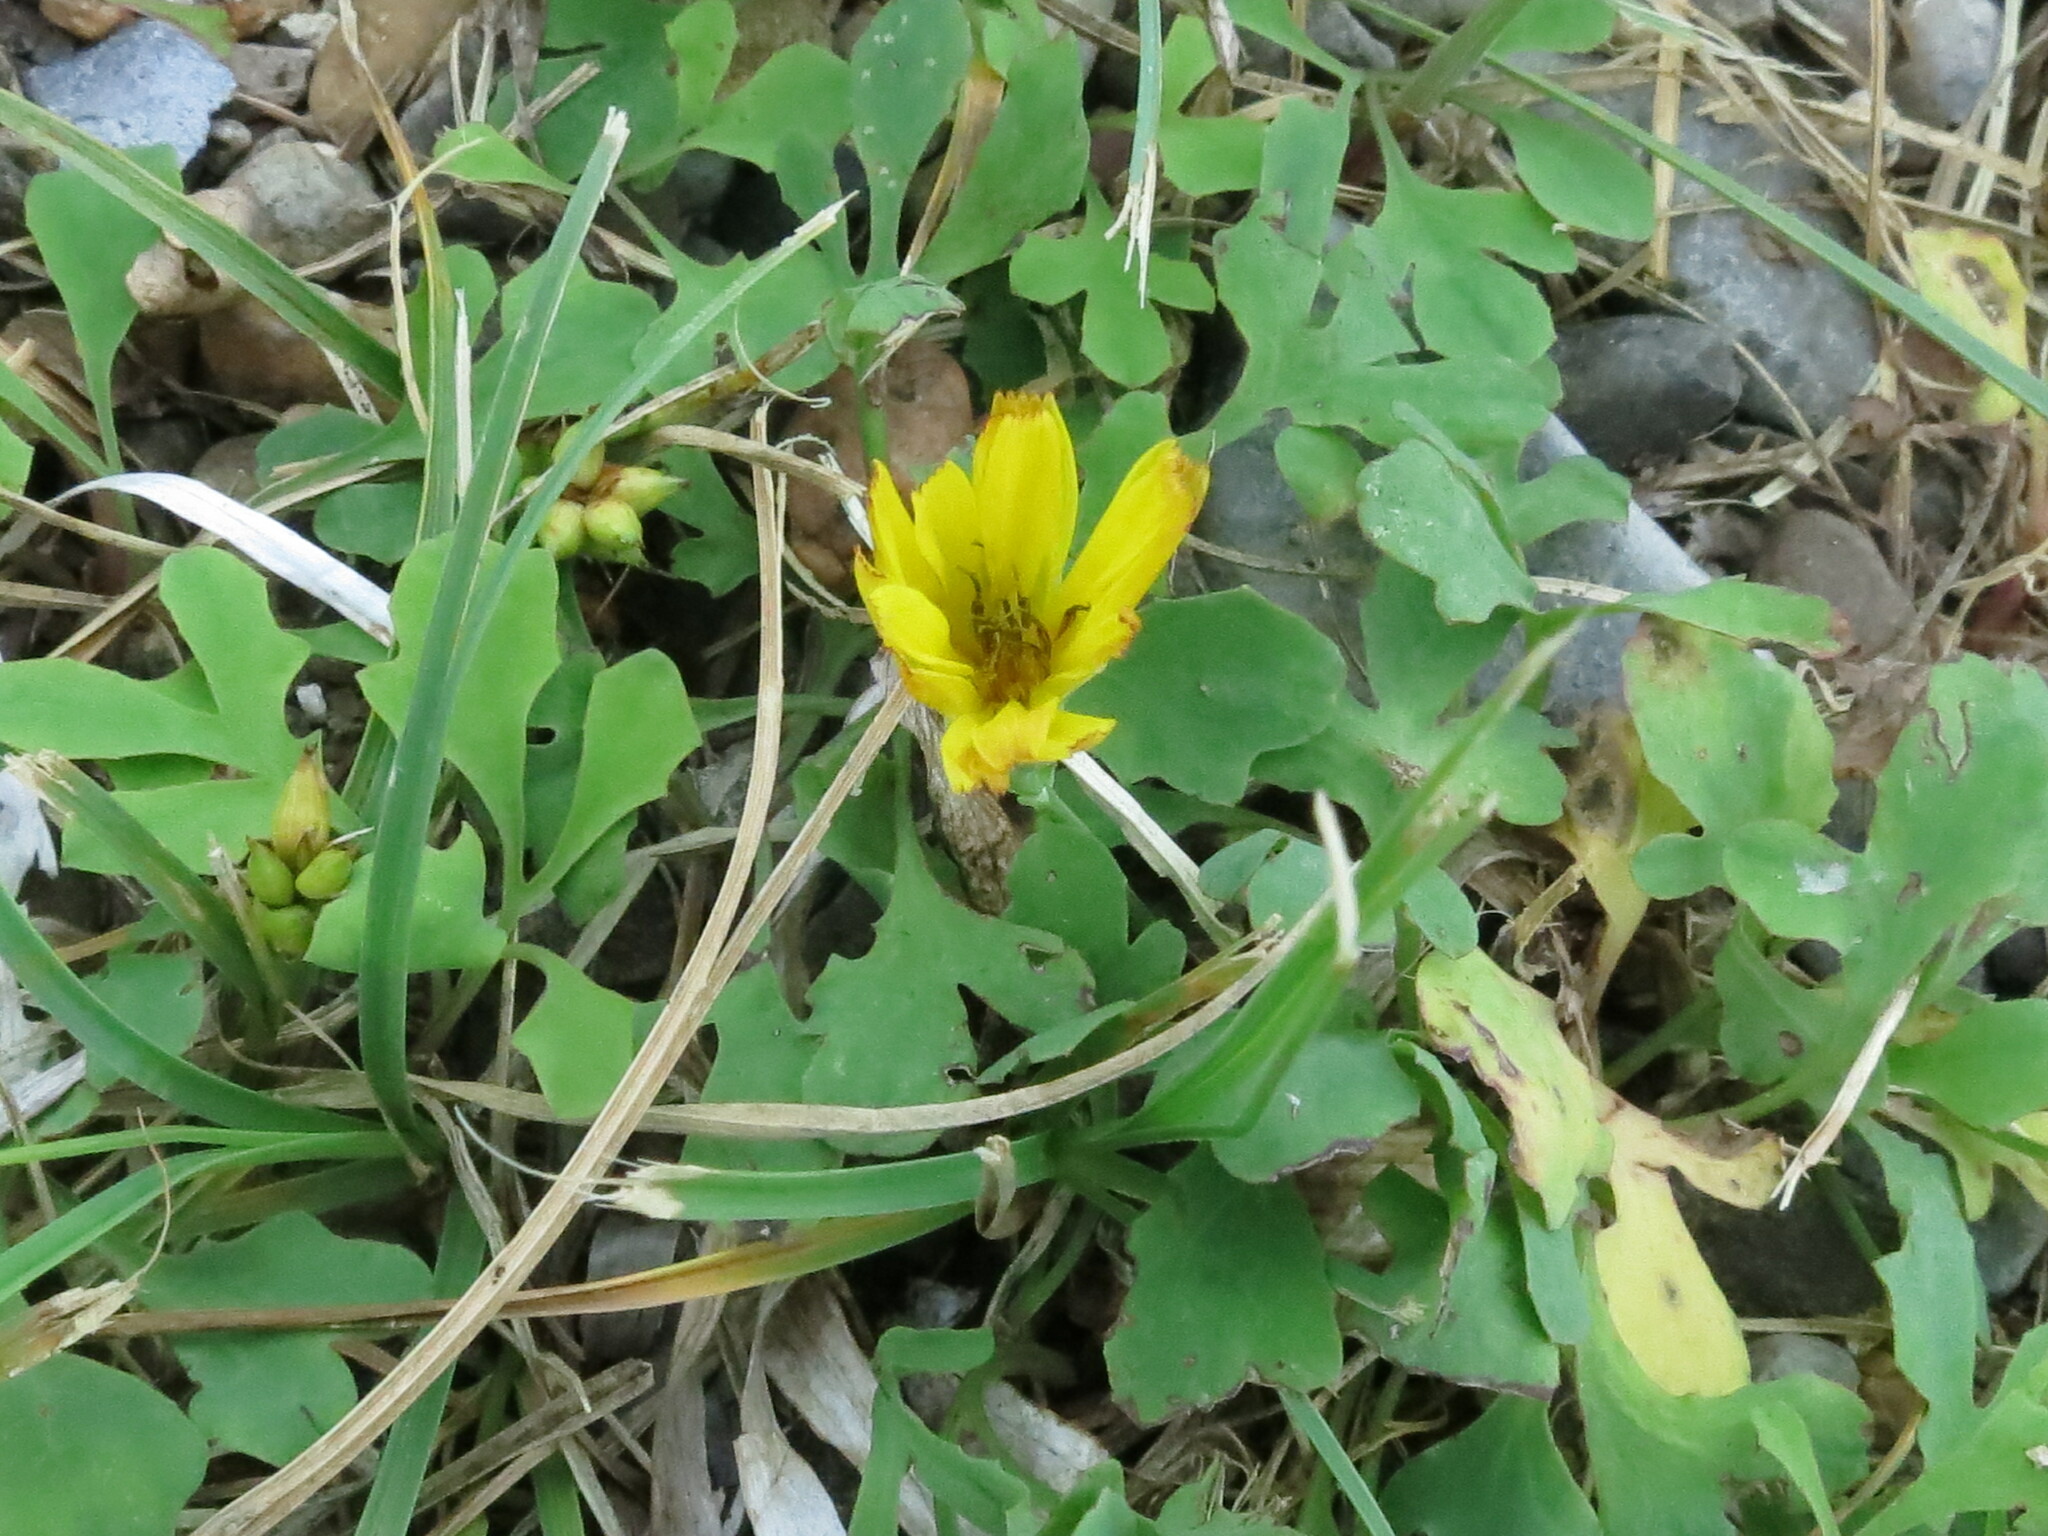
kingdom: Plantae
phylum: Tracheophyta
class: Magnoliopsida
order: Asterales
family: Asteraceae
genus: Ixeris
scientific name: Ixeris repens
